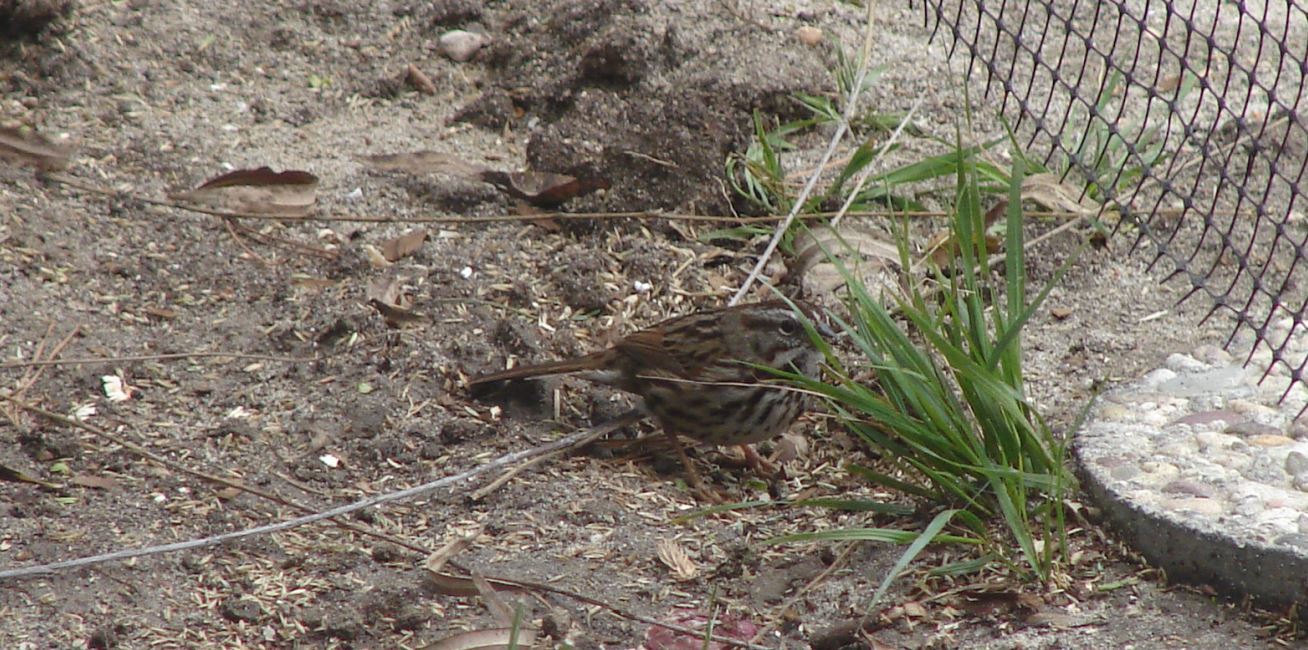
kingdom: Animalia
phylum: Chordata
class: Aves
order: Passeriformes
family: Passerellidae
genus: Melospiza
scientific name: Melospiza melodia
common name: Song sparrow
